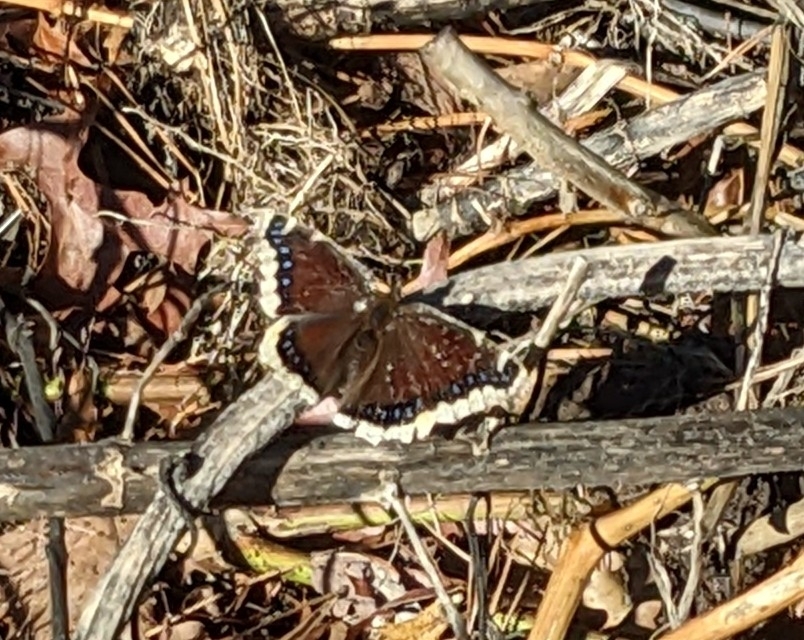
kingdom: Animalia
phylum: Arthropoda
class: Insecta
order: Lepidoptera
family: Nymphalidae
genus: Nymphalis
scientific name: Nymphalis antiopa
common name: Camberwell beauty
